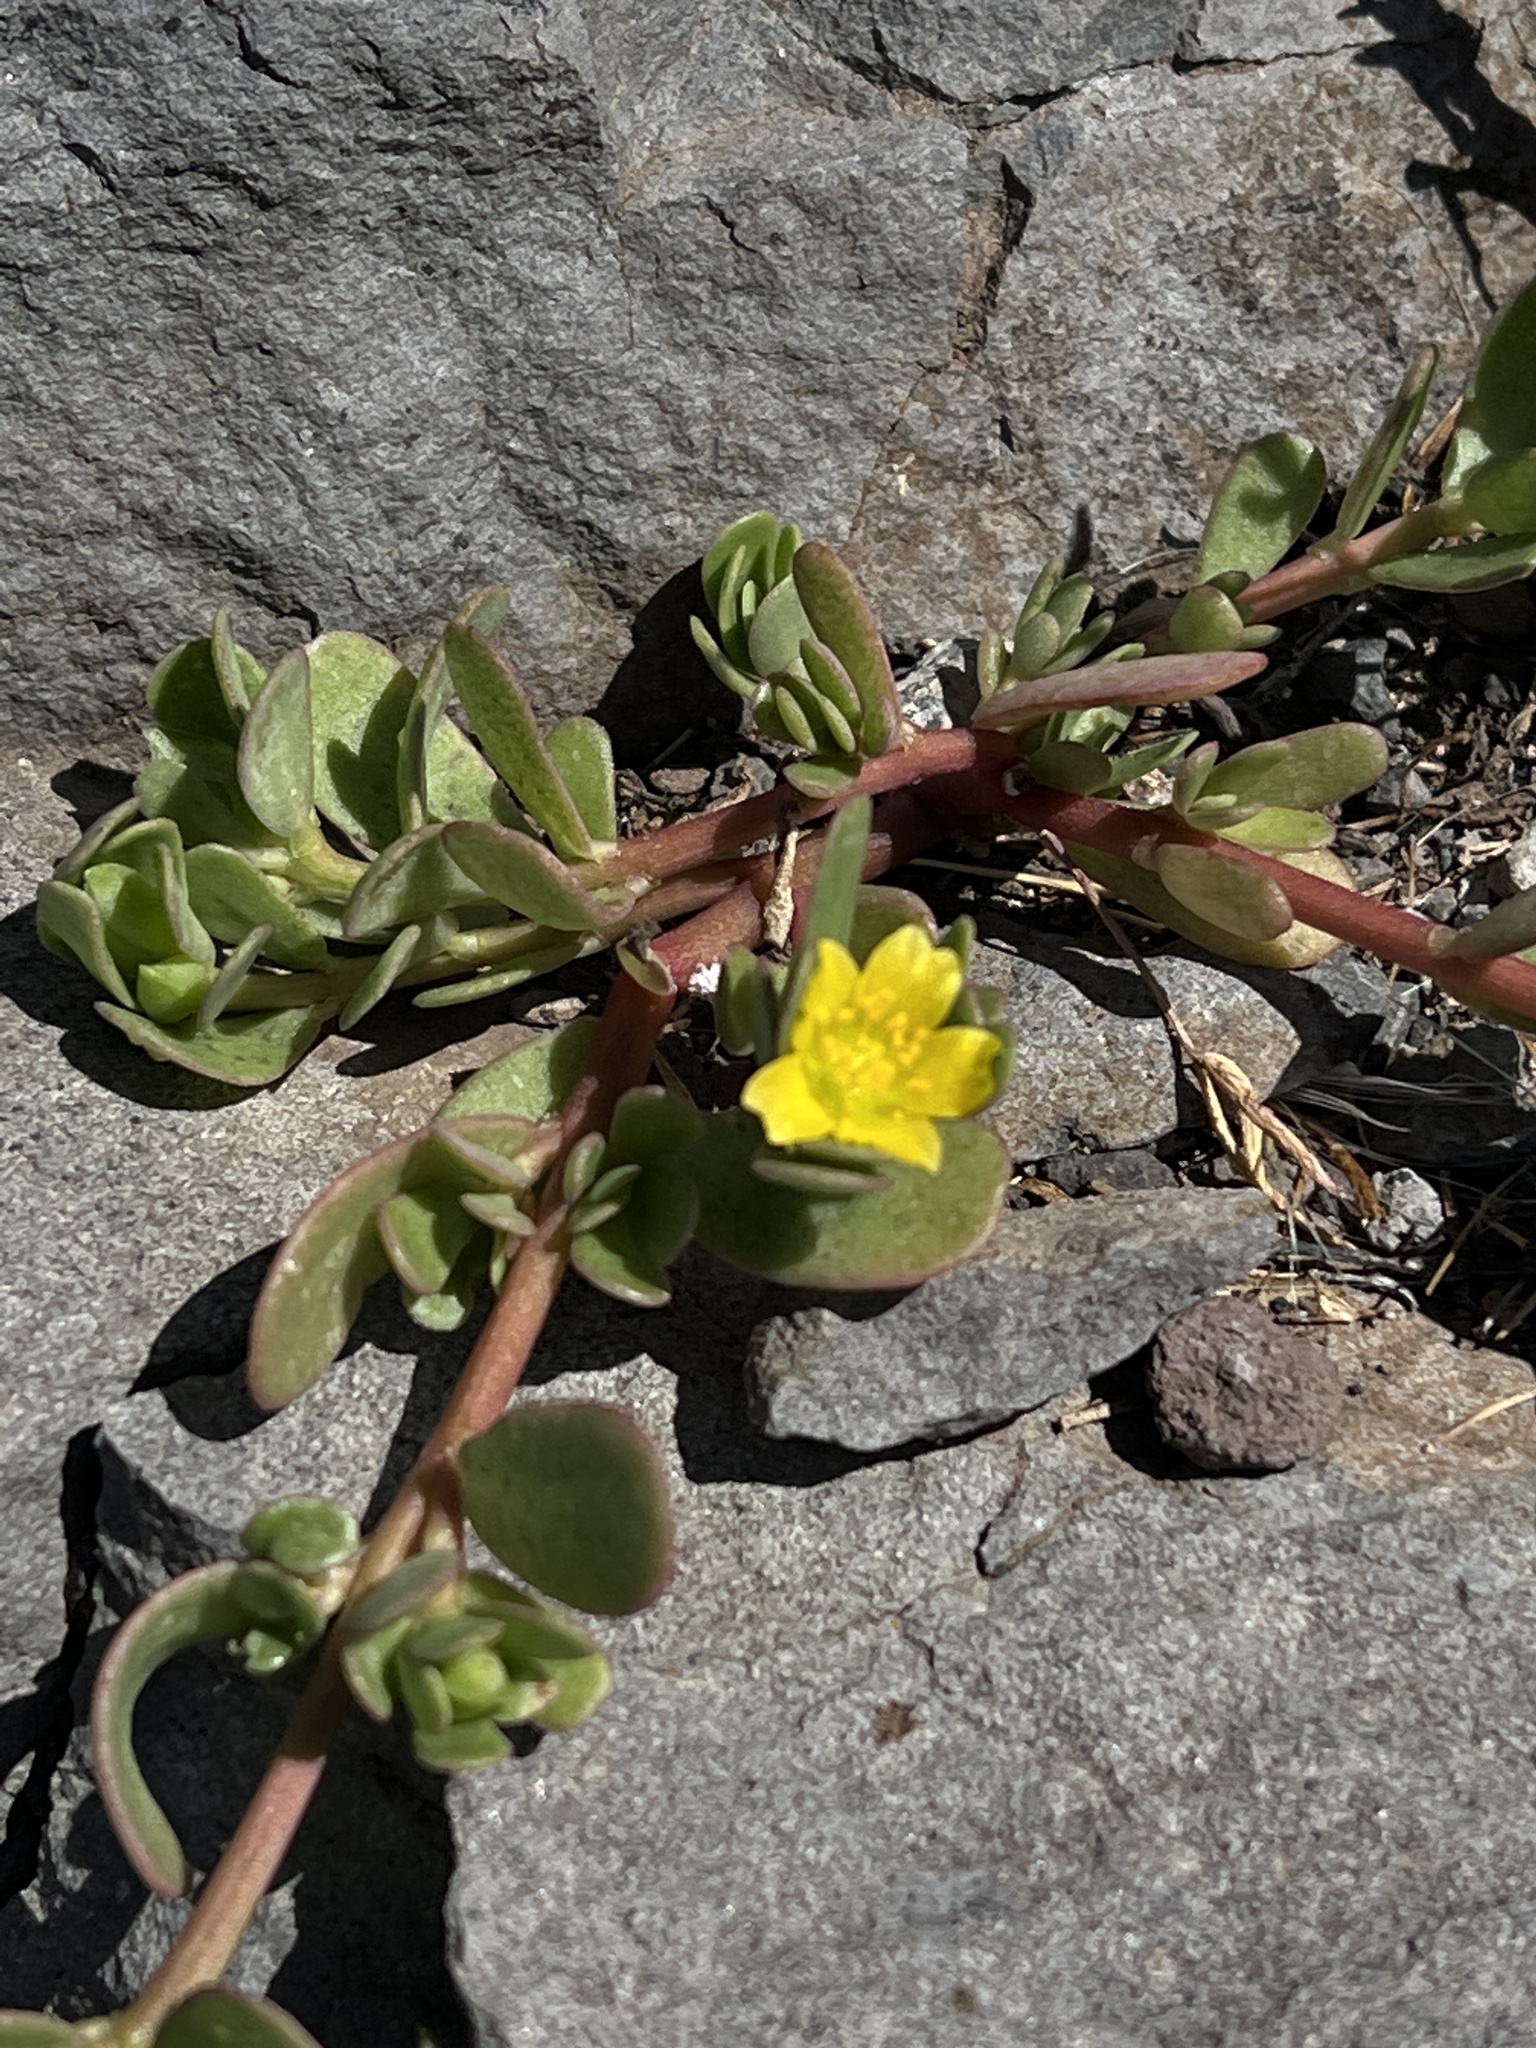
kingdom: Plantae
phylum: Tracheophyta
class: Magnoliopsida
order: Caryophyllales
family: Portulacaceae
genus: Portulaca
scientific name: Portulaca oleracea
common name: Common purslane
